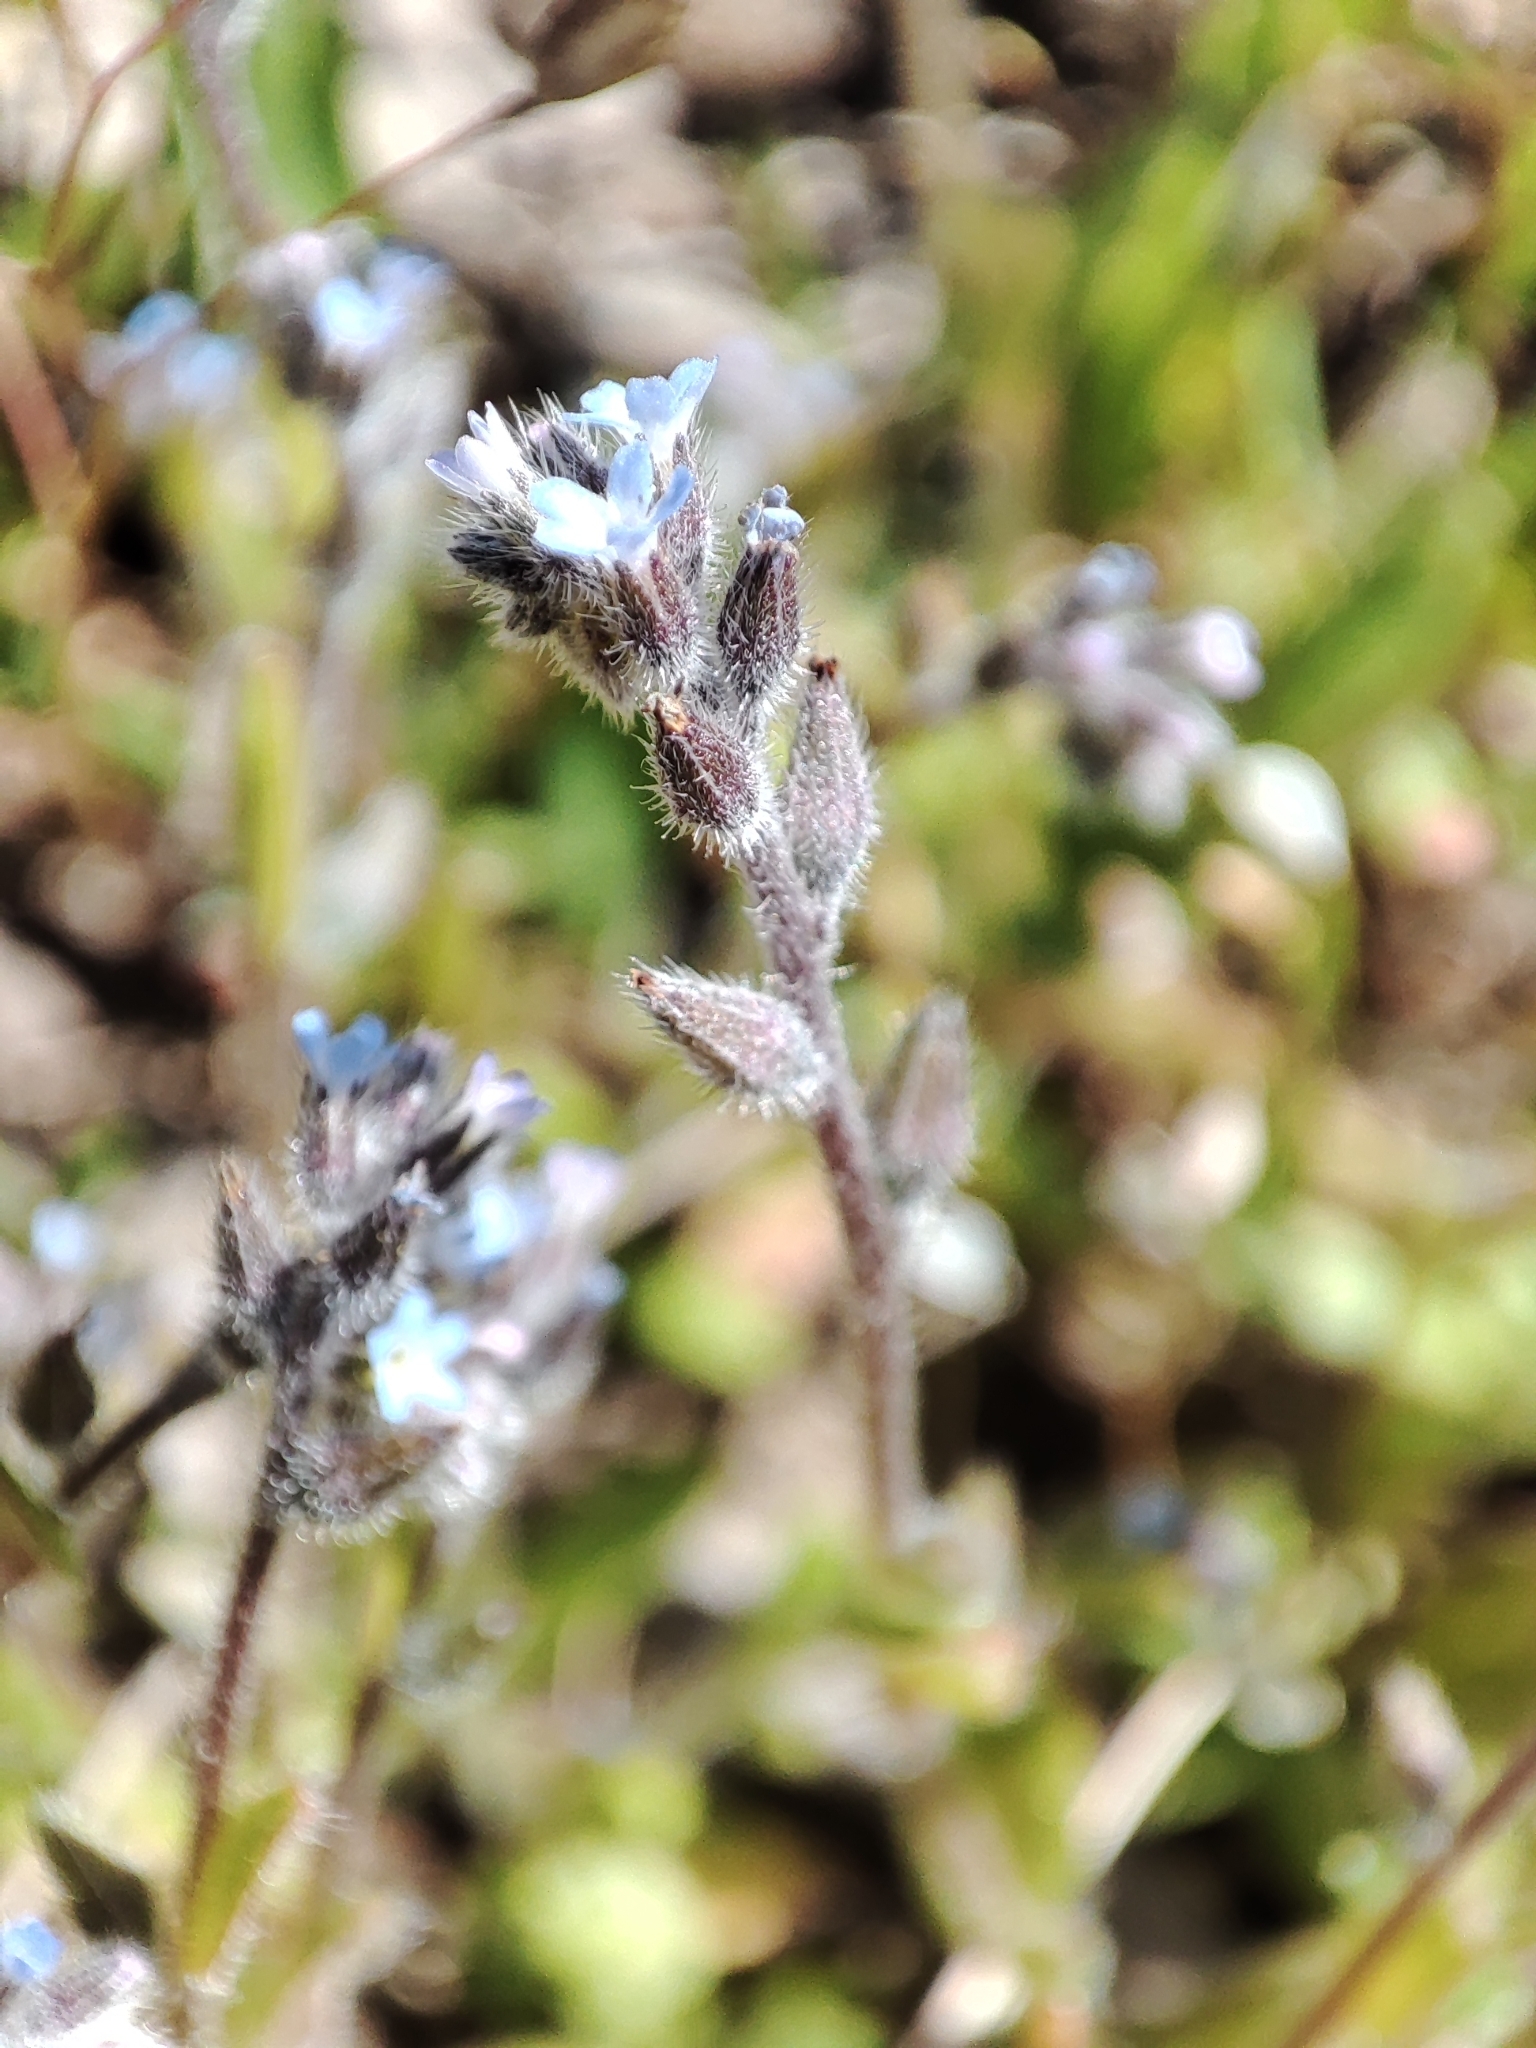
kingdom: Plantae
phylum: Tracheophyta
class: Magnoliopsida
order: Boraginales
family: Boraginaceae
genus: Myosotis
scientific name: Myosotis stricta
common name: Strict forget-me-not
